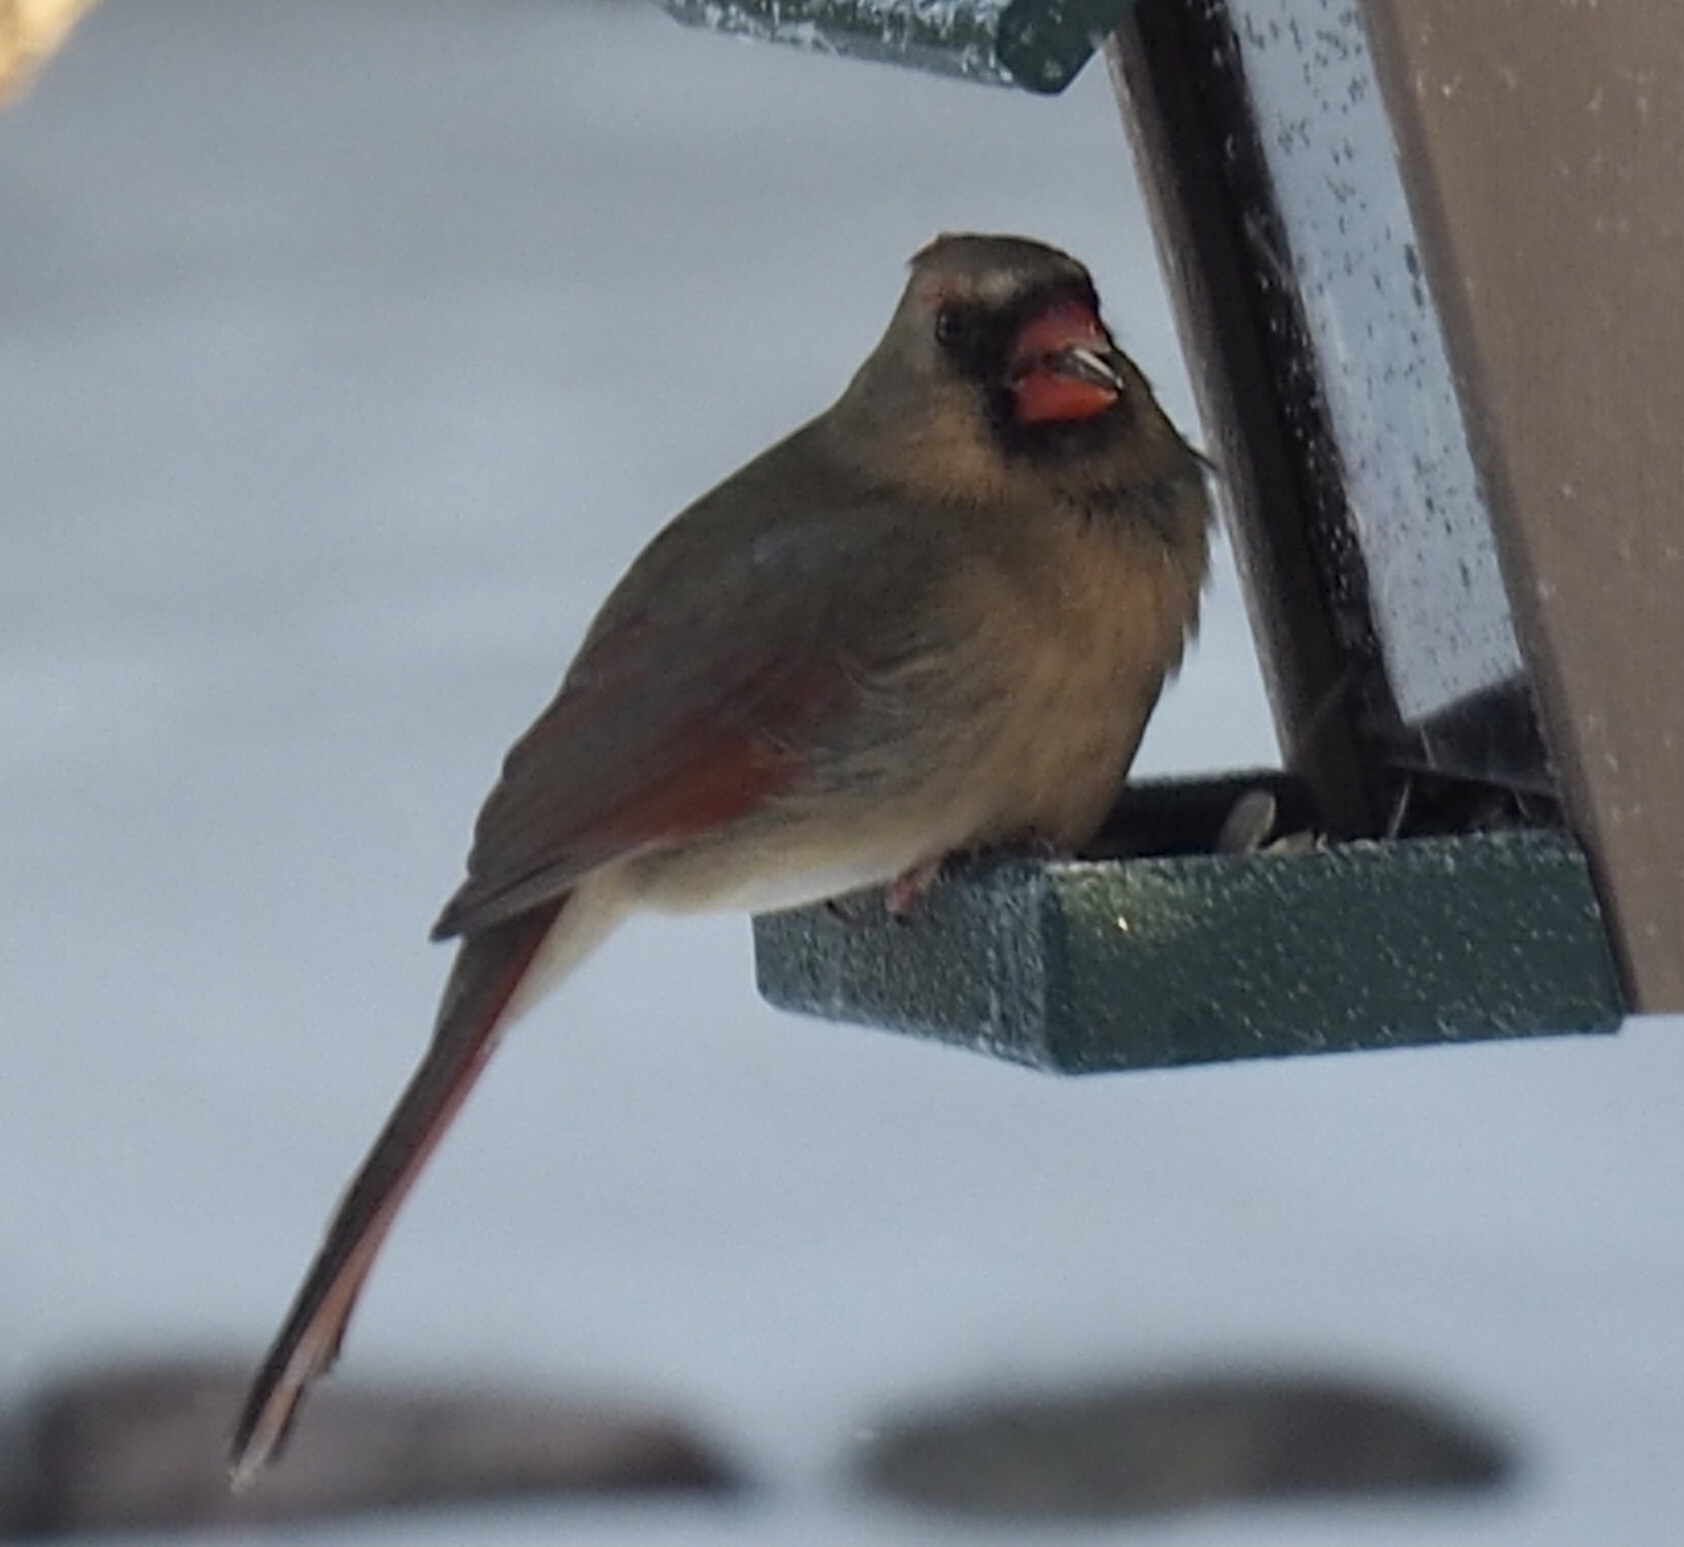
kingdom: Animalia
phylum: Chordata
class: Aves
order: Passeriformes
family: Cardinalidae
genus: Cardinalis
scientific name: Cardinalis cardinalis
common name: Northern cardinal
